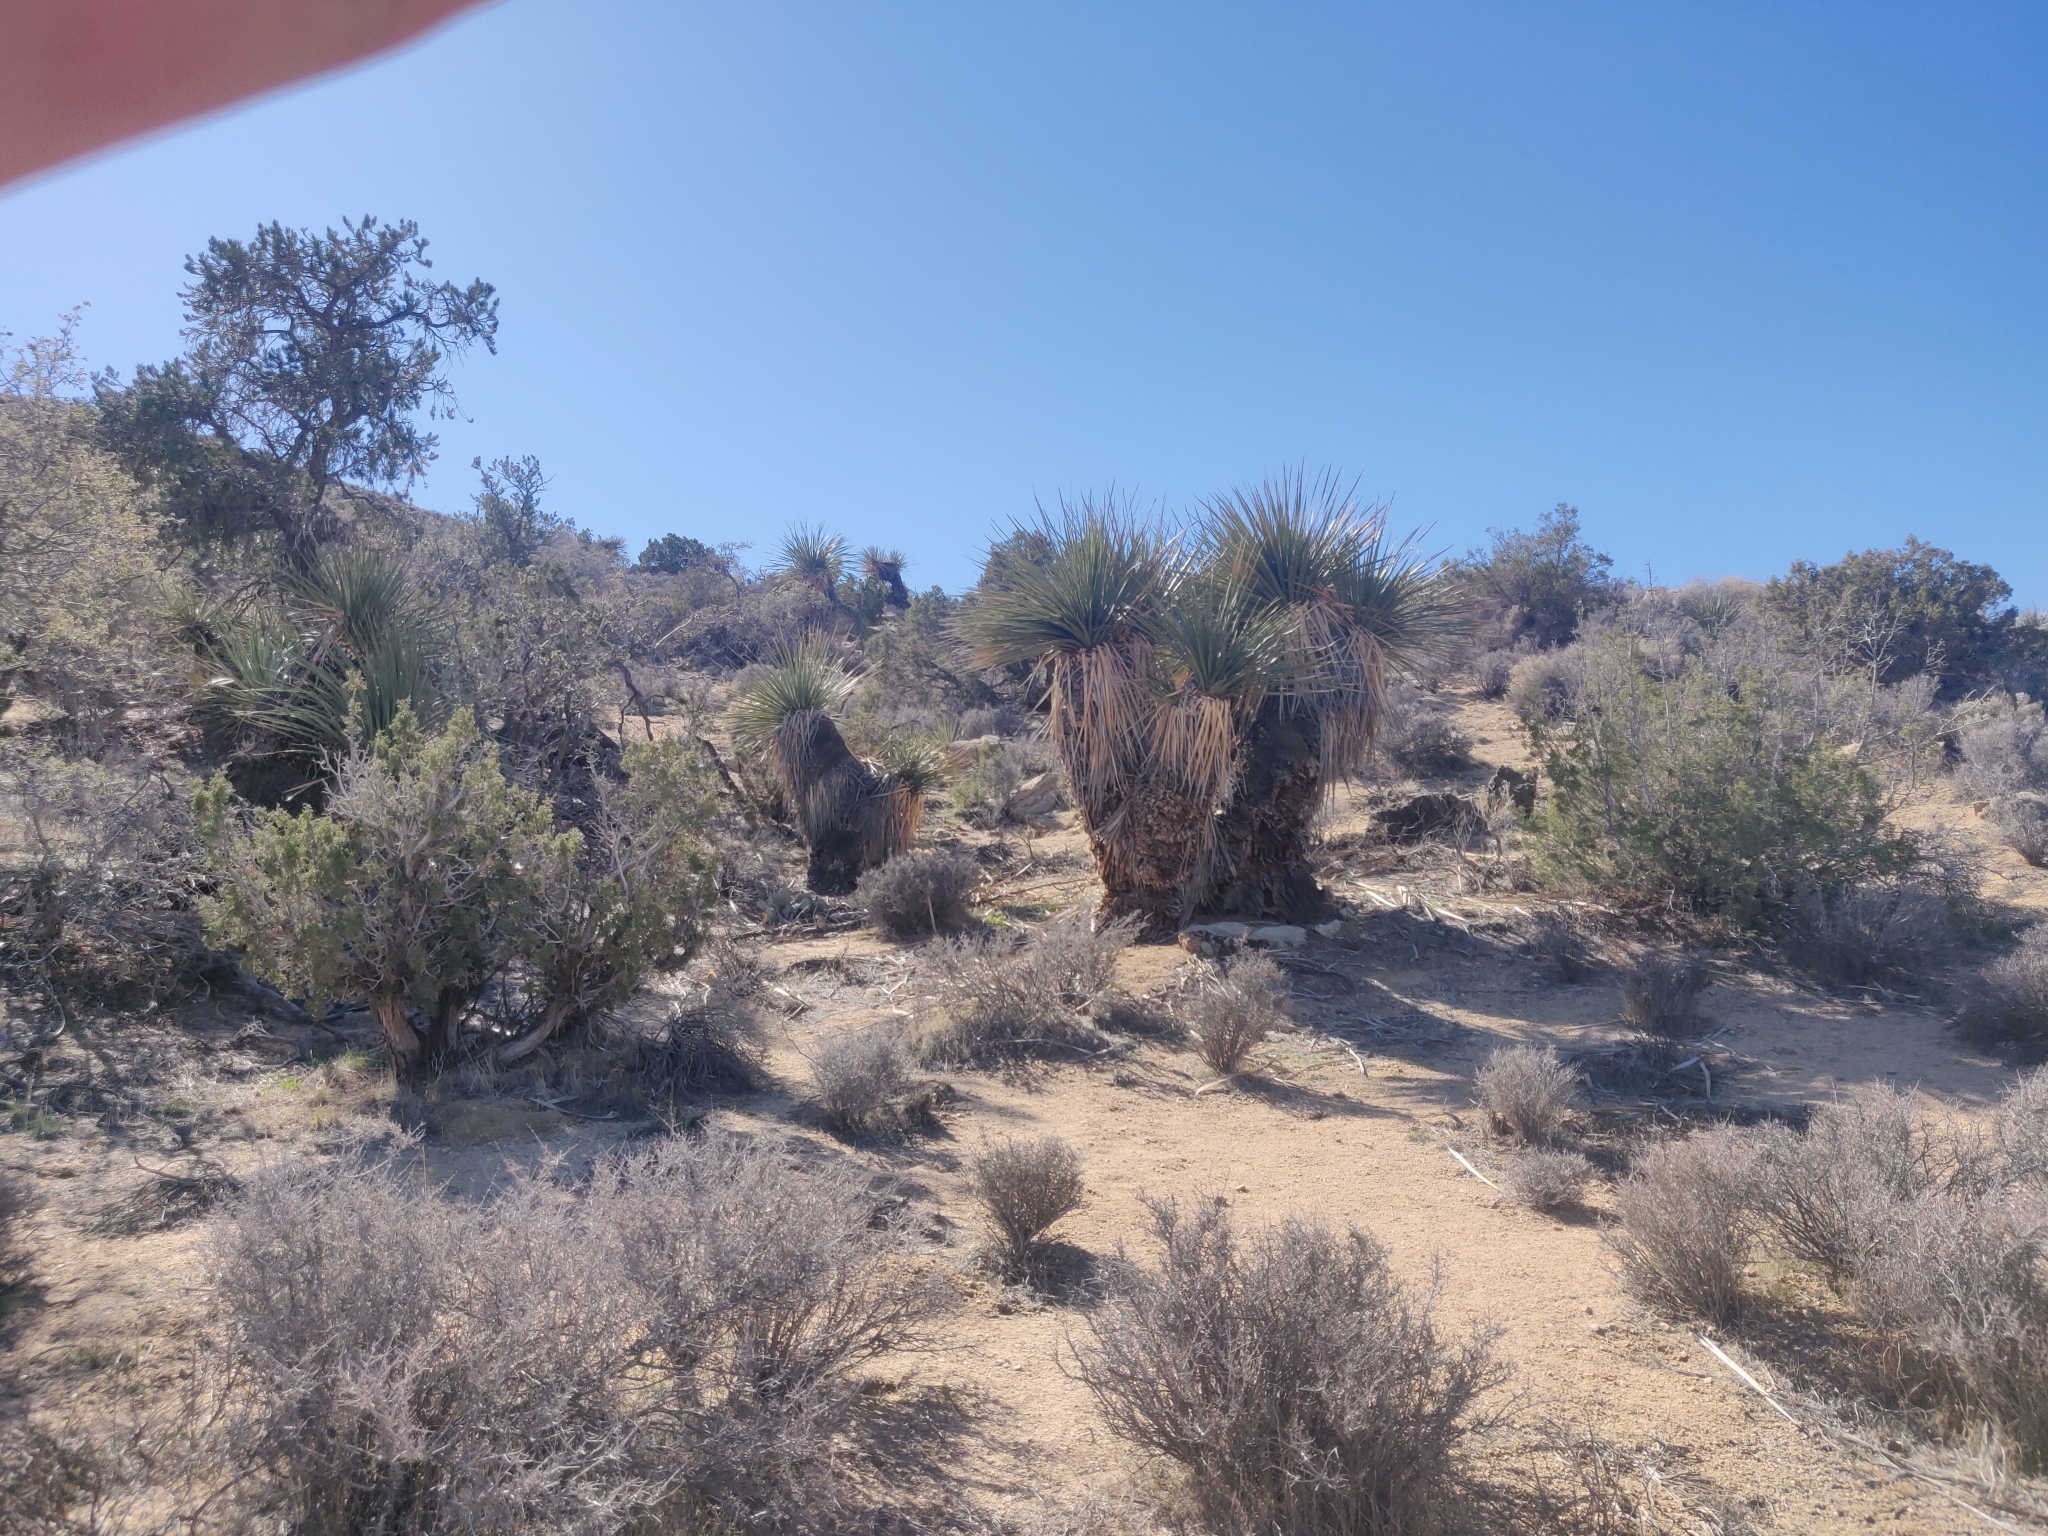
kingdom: Plantae
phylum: Tracheophyta
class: Liliopsida
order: Asparagales
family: Asparagaceae
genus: Nolina
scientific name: Nolina parryi
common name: Parry nolina
